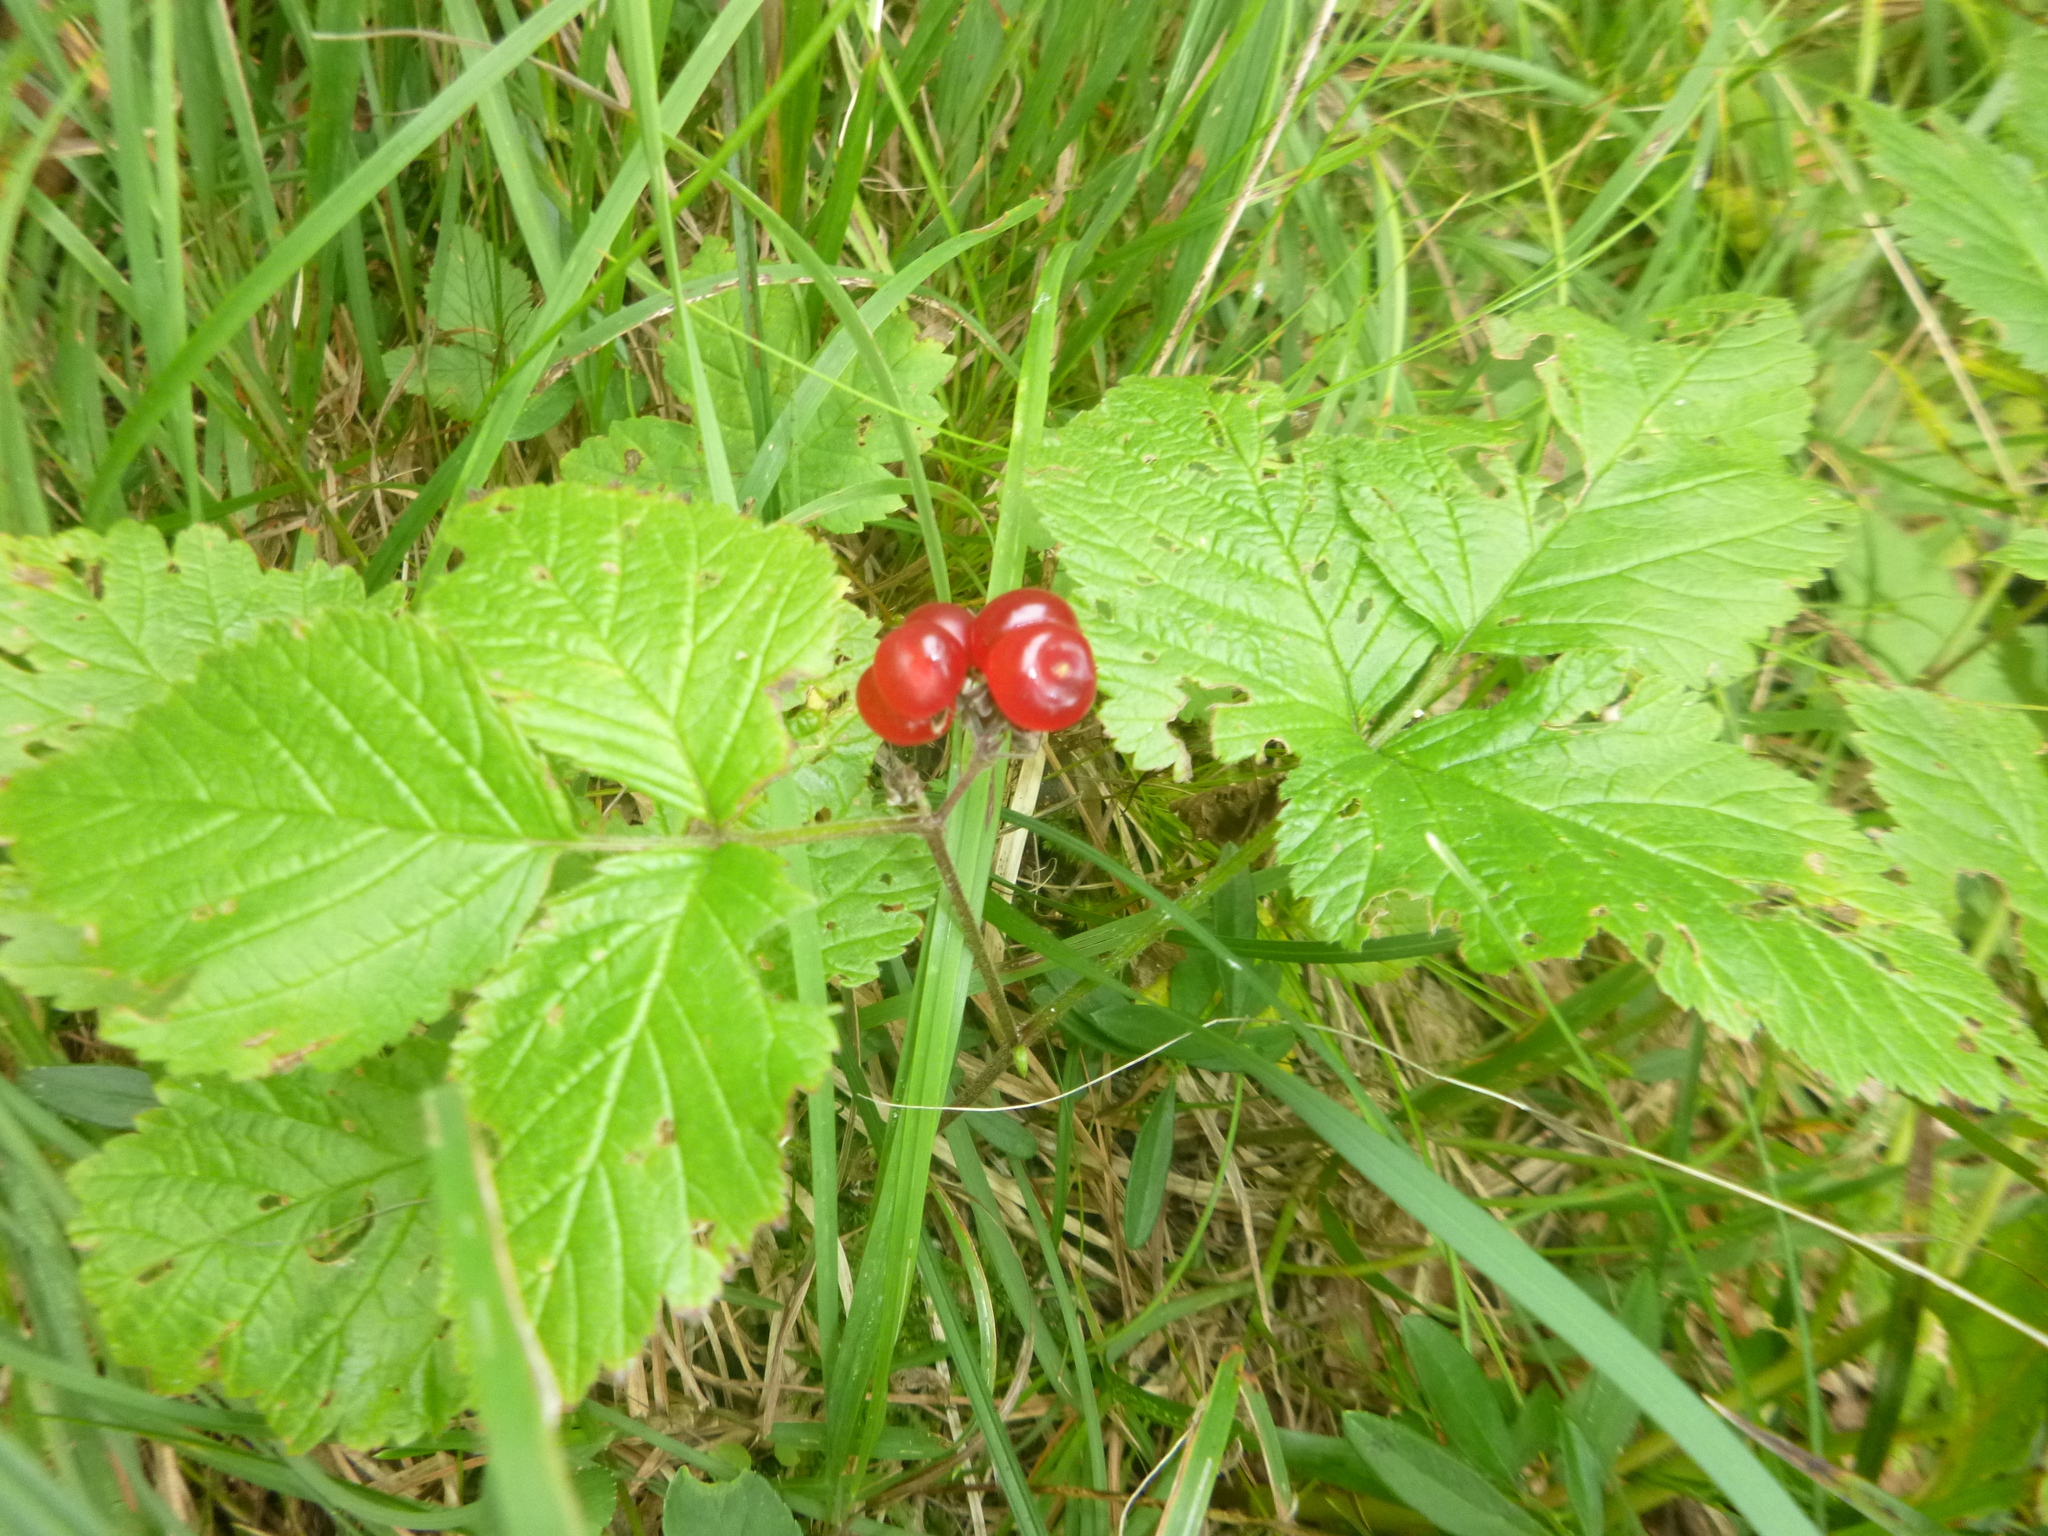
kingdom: Plantae
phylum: Tracheophyta
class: Magnoliopsida
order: Rosales
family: Rosaceae
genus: Rubus
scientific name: Rubus saxatilis
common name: Stone bramble
